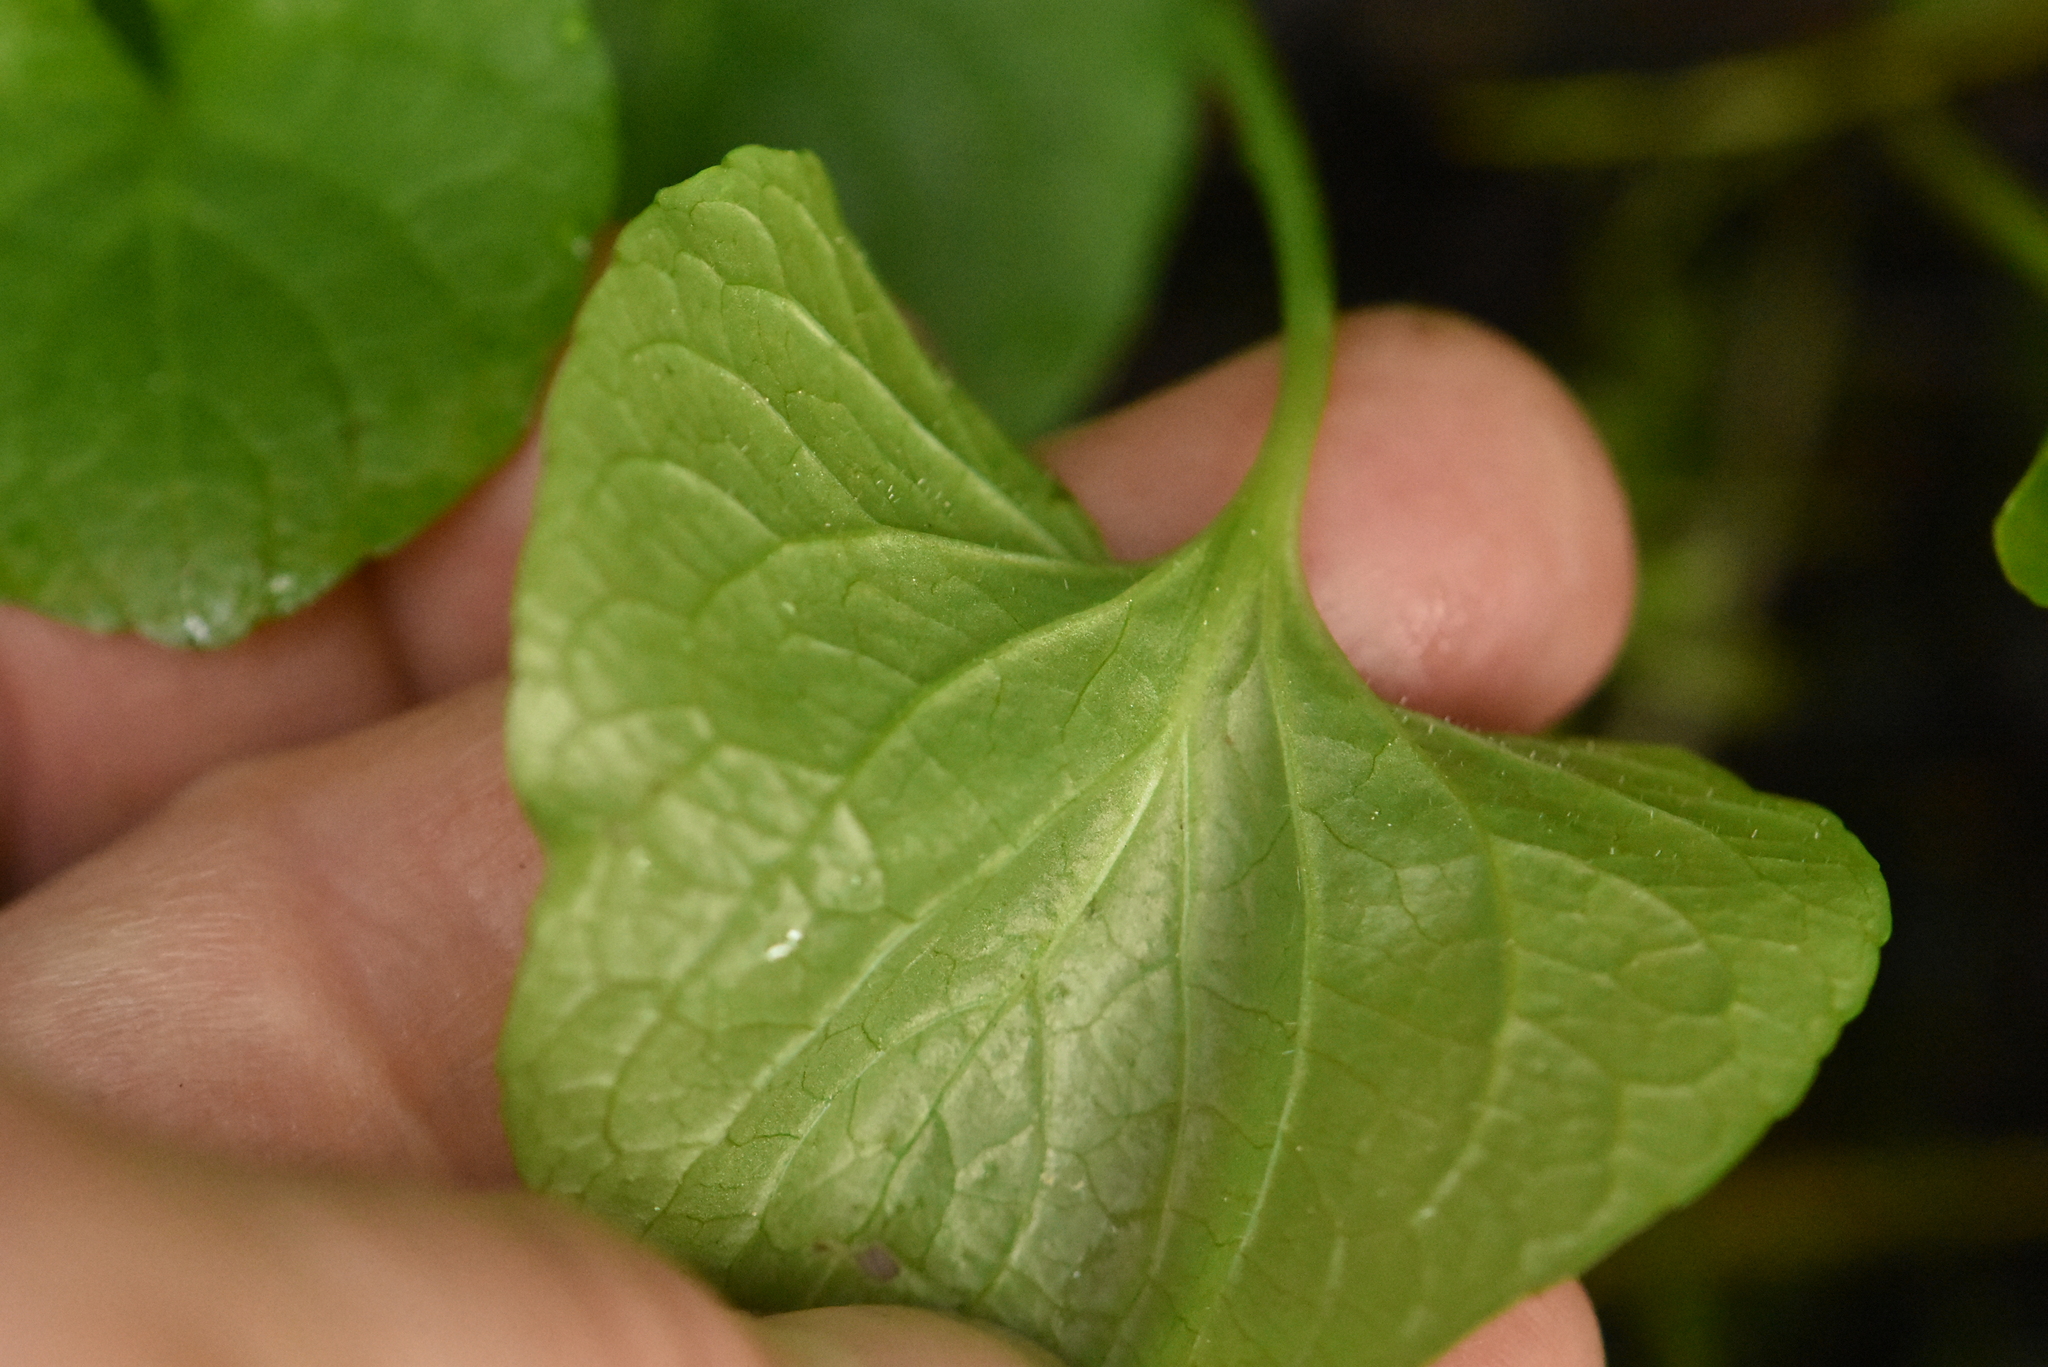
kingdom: Plantae
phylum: Tracheophyta
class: Magnoliopsida
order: Malpighiales
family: Violaceae
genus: Viola
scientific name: Viola ruprechtiana
